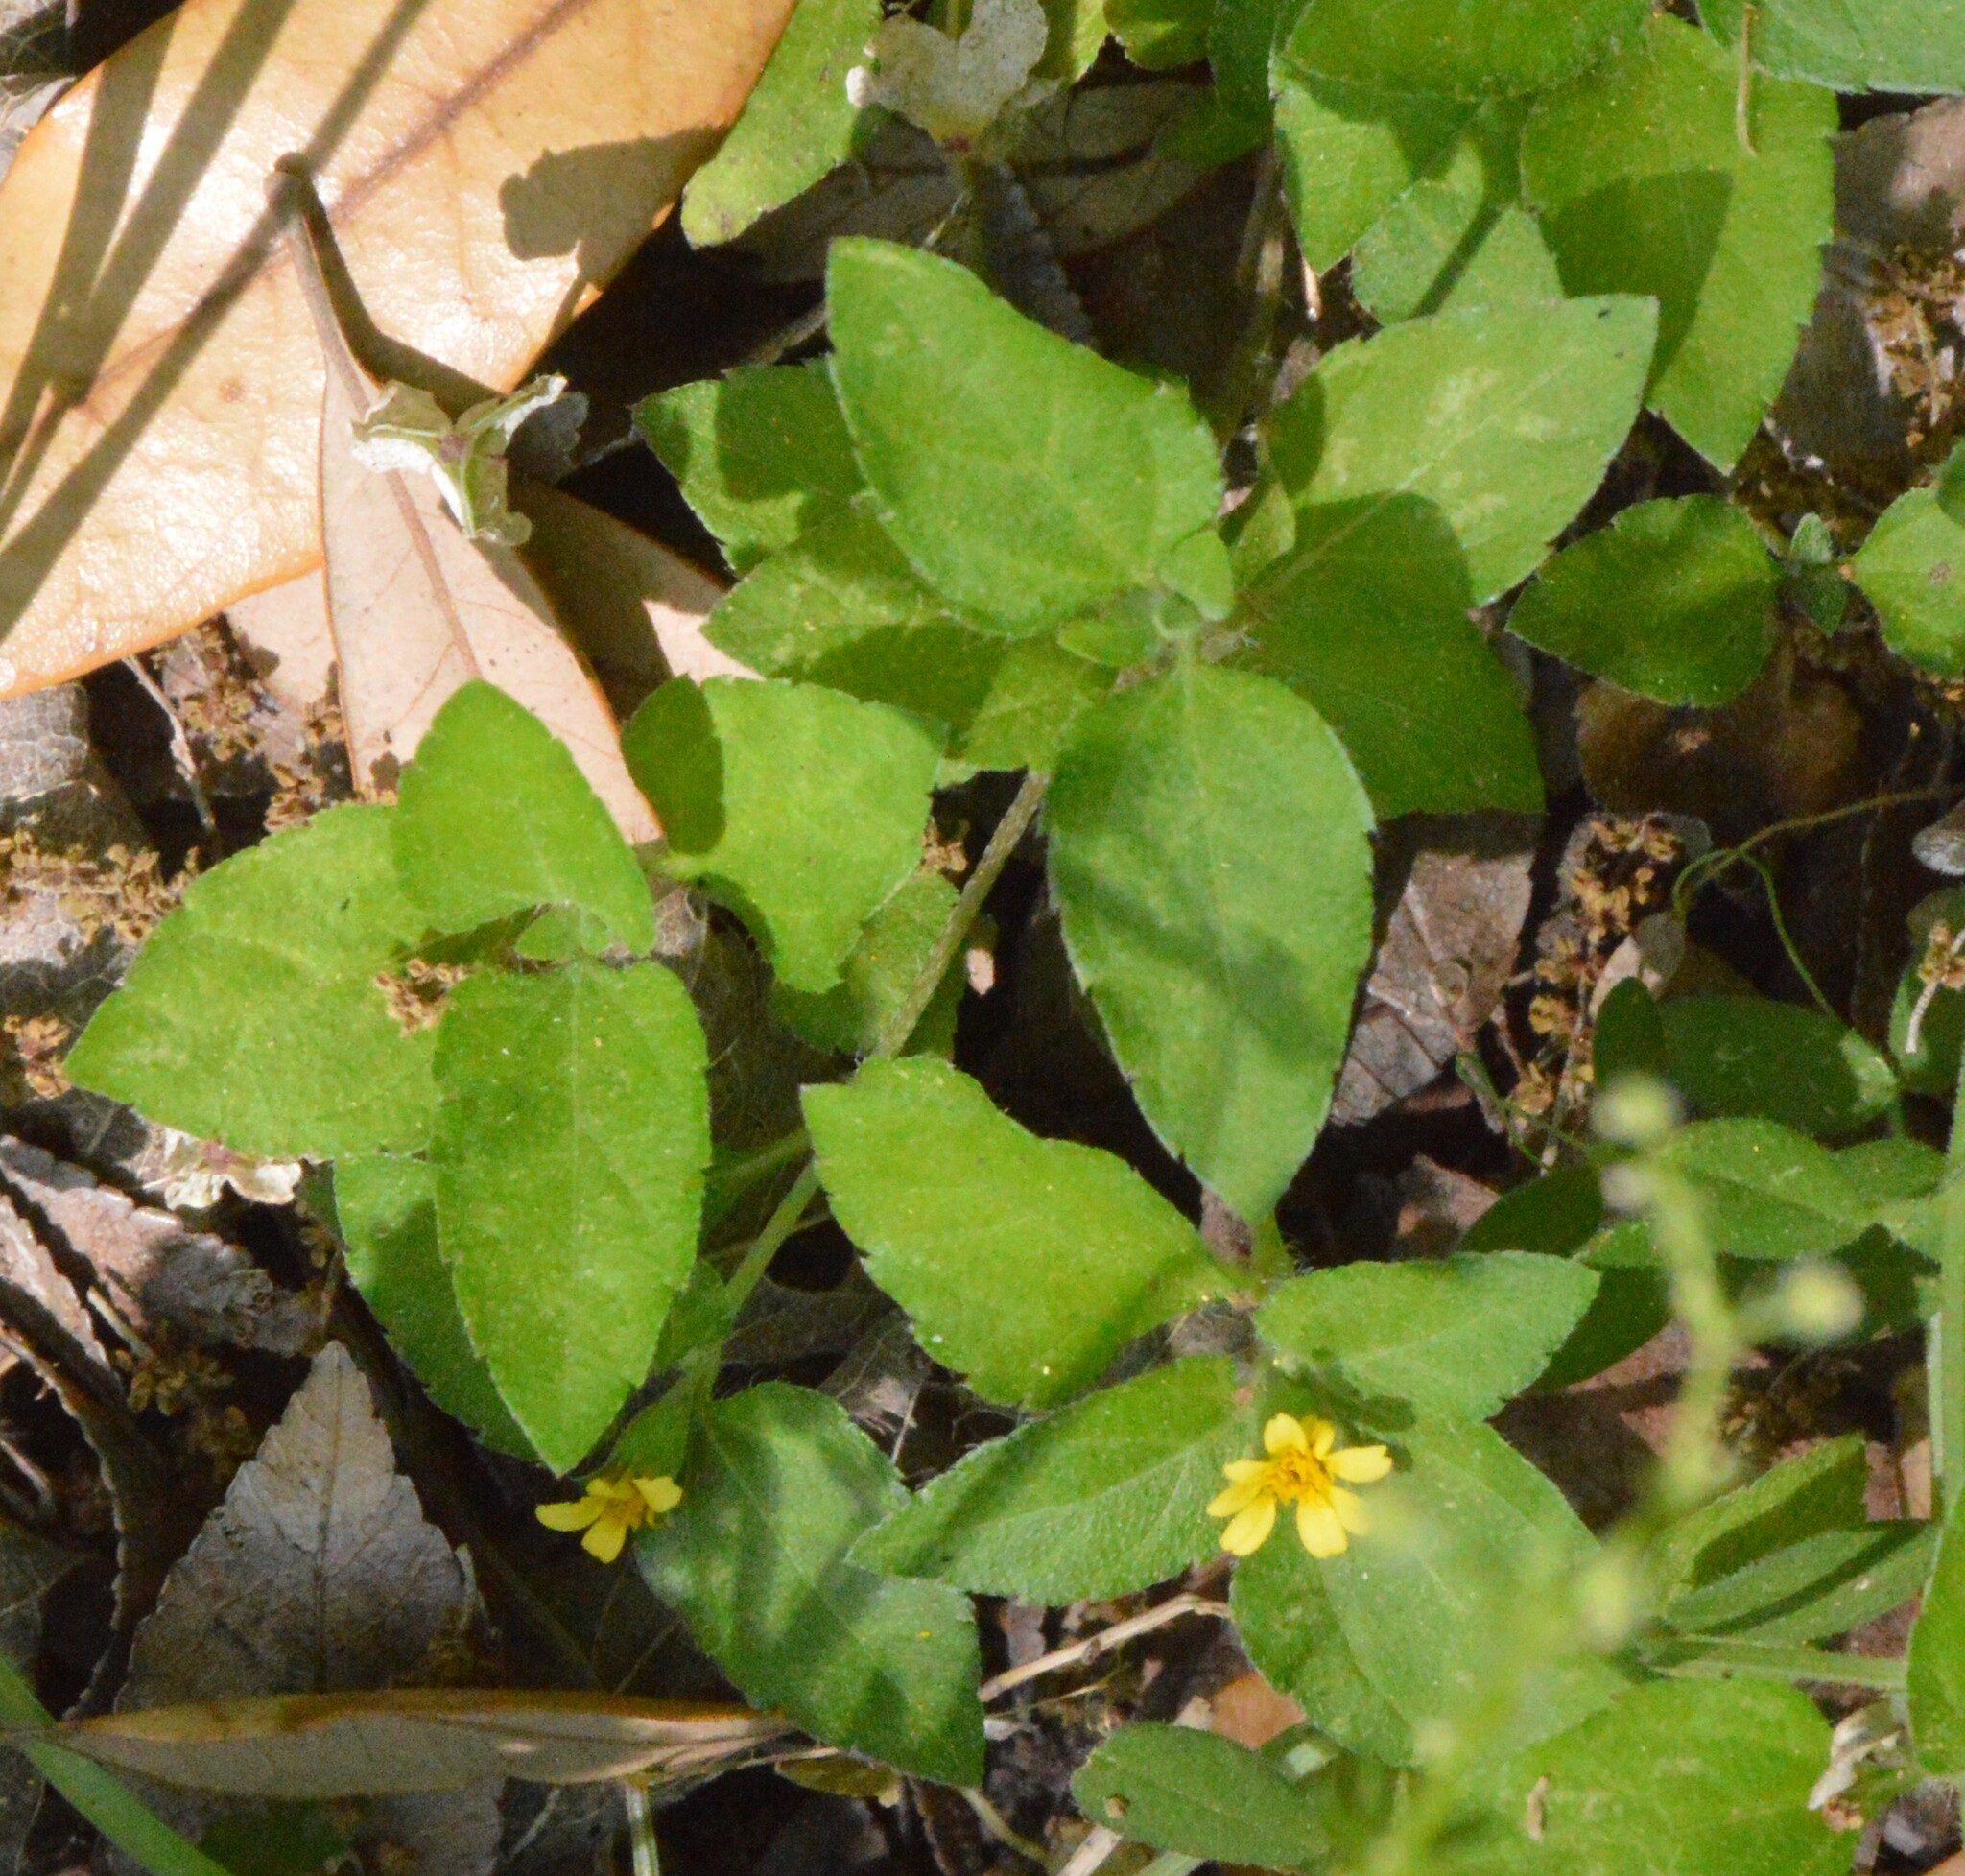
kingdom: Plantae
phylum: Tracheophyta
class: Magnoliopsida
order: Asterales
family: Asteraceae
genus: Calyptocarpus
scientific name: Calyptocarpus vialis
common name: Straggler daisy
